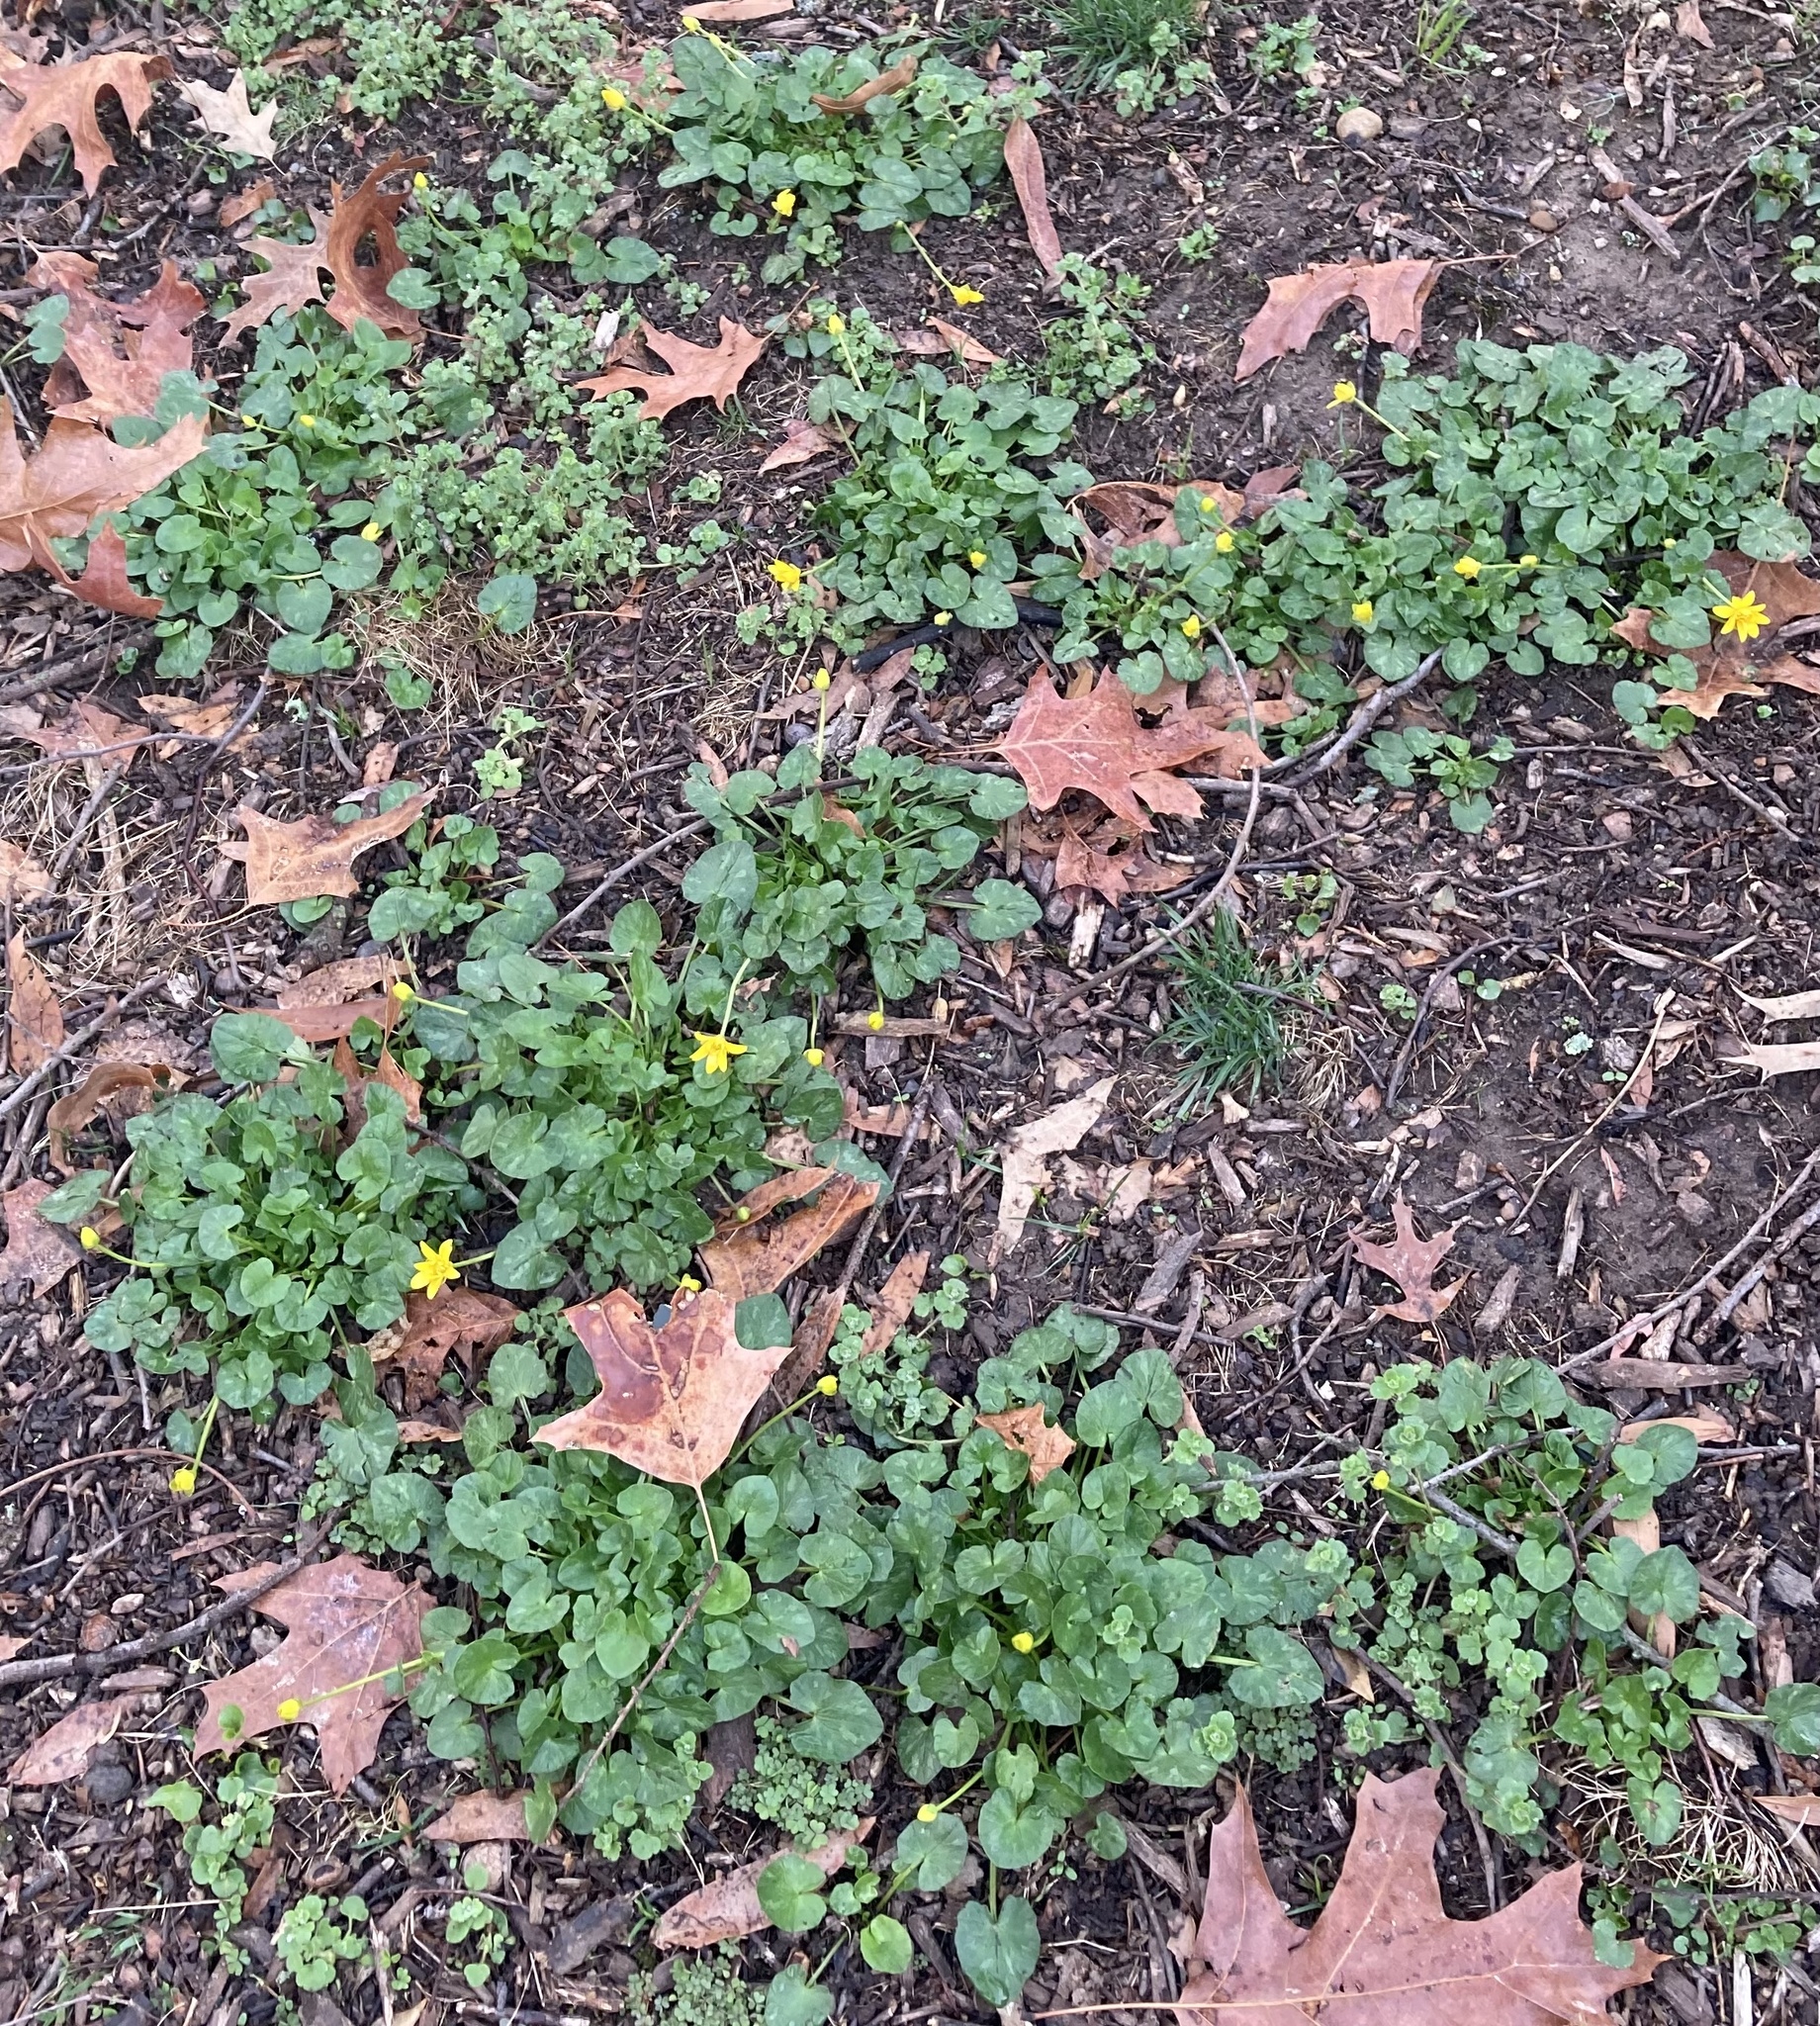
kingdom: Plantae
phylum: Tracheophyta
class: Magnoliopsida
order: Ranunculales
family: Ranunculaceae
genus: Ficaria
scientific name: Ficaria verna
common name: Lesser celandine
